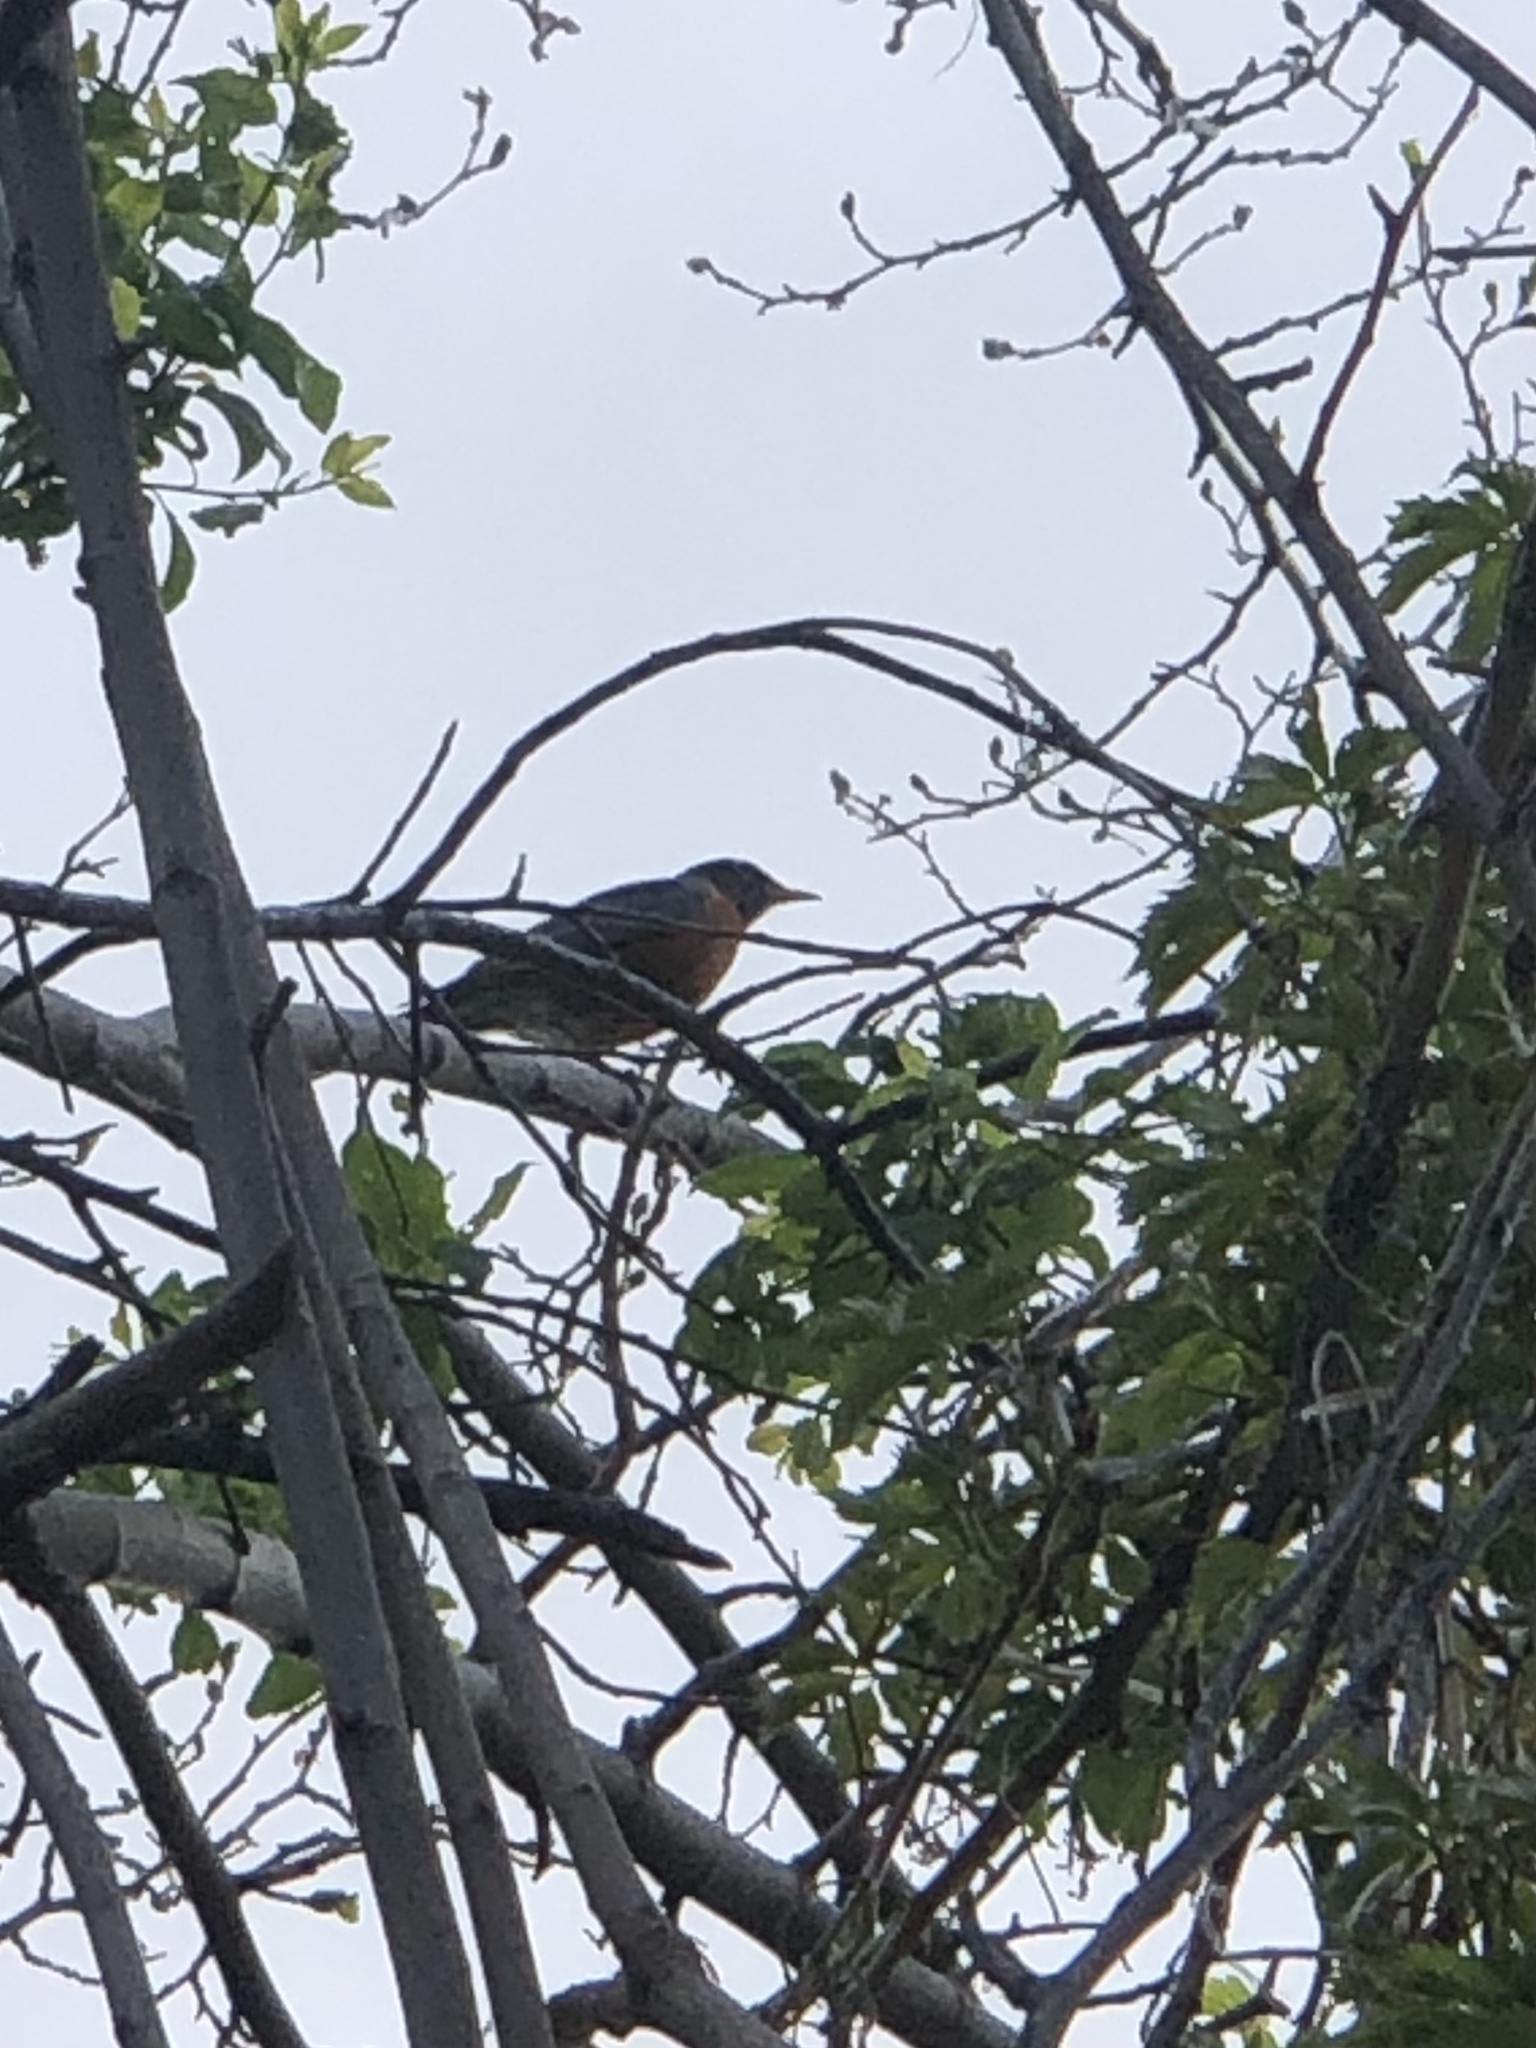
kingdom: Animalia
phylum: Chordata
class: Aves
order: Passeriformes
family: Turdidae
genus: Turdus
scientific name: Turdus migratorius
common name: American robin
